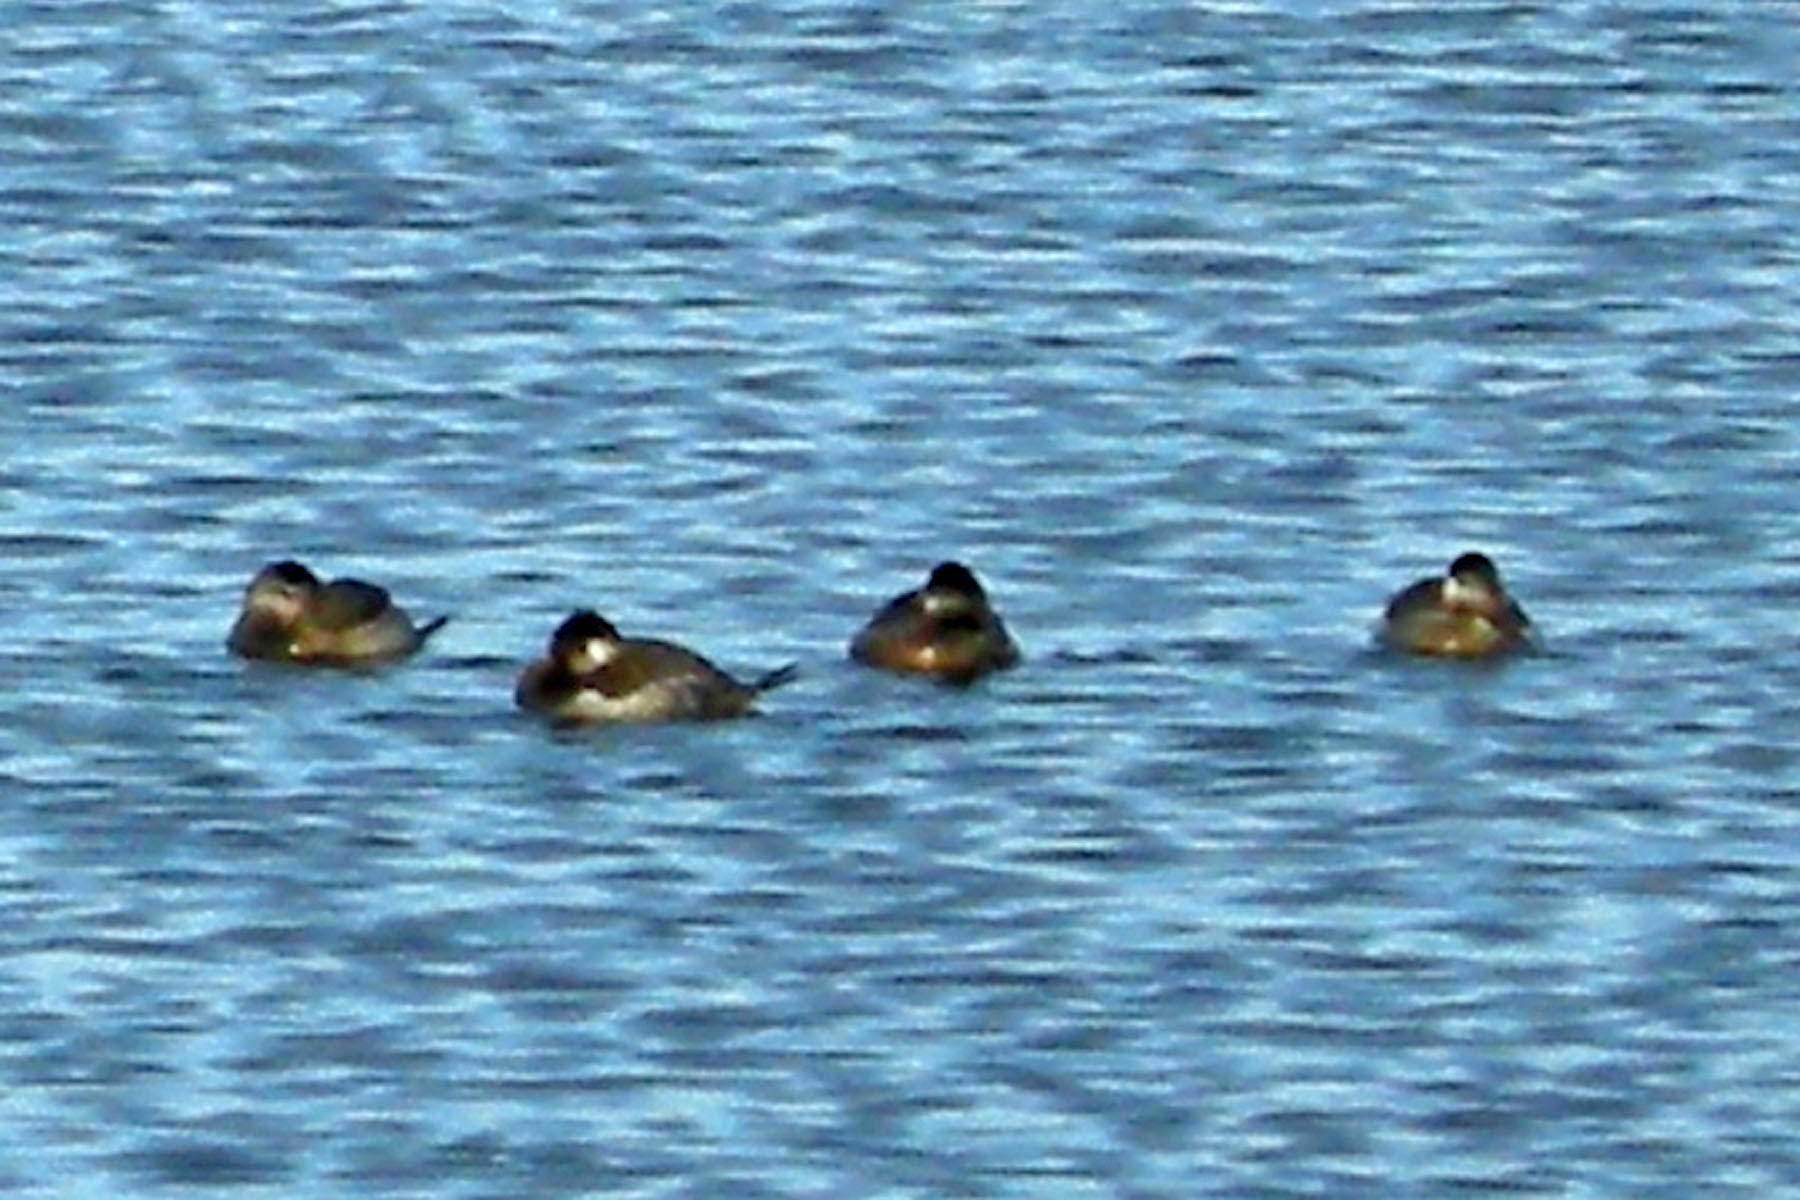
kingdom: Animalia
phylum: Chordata
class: Aves
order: Anseriformes
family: Anatidae
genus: Oxyura
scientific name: Oxyura jamaicensis
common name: Ruddy duck
